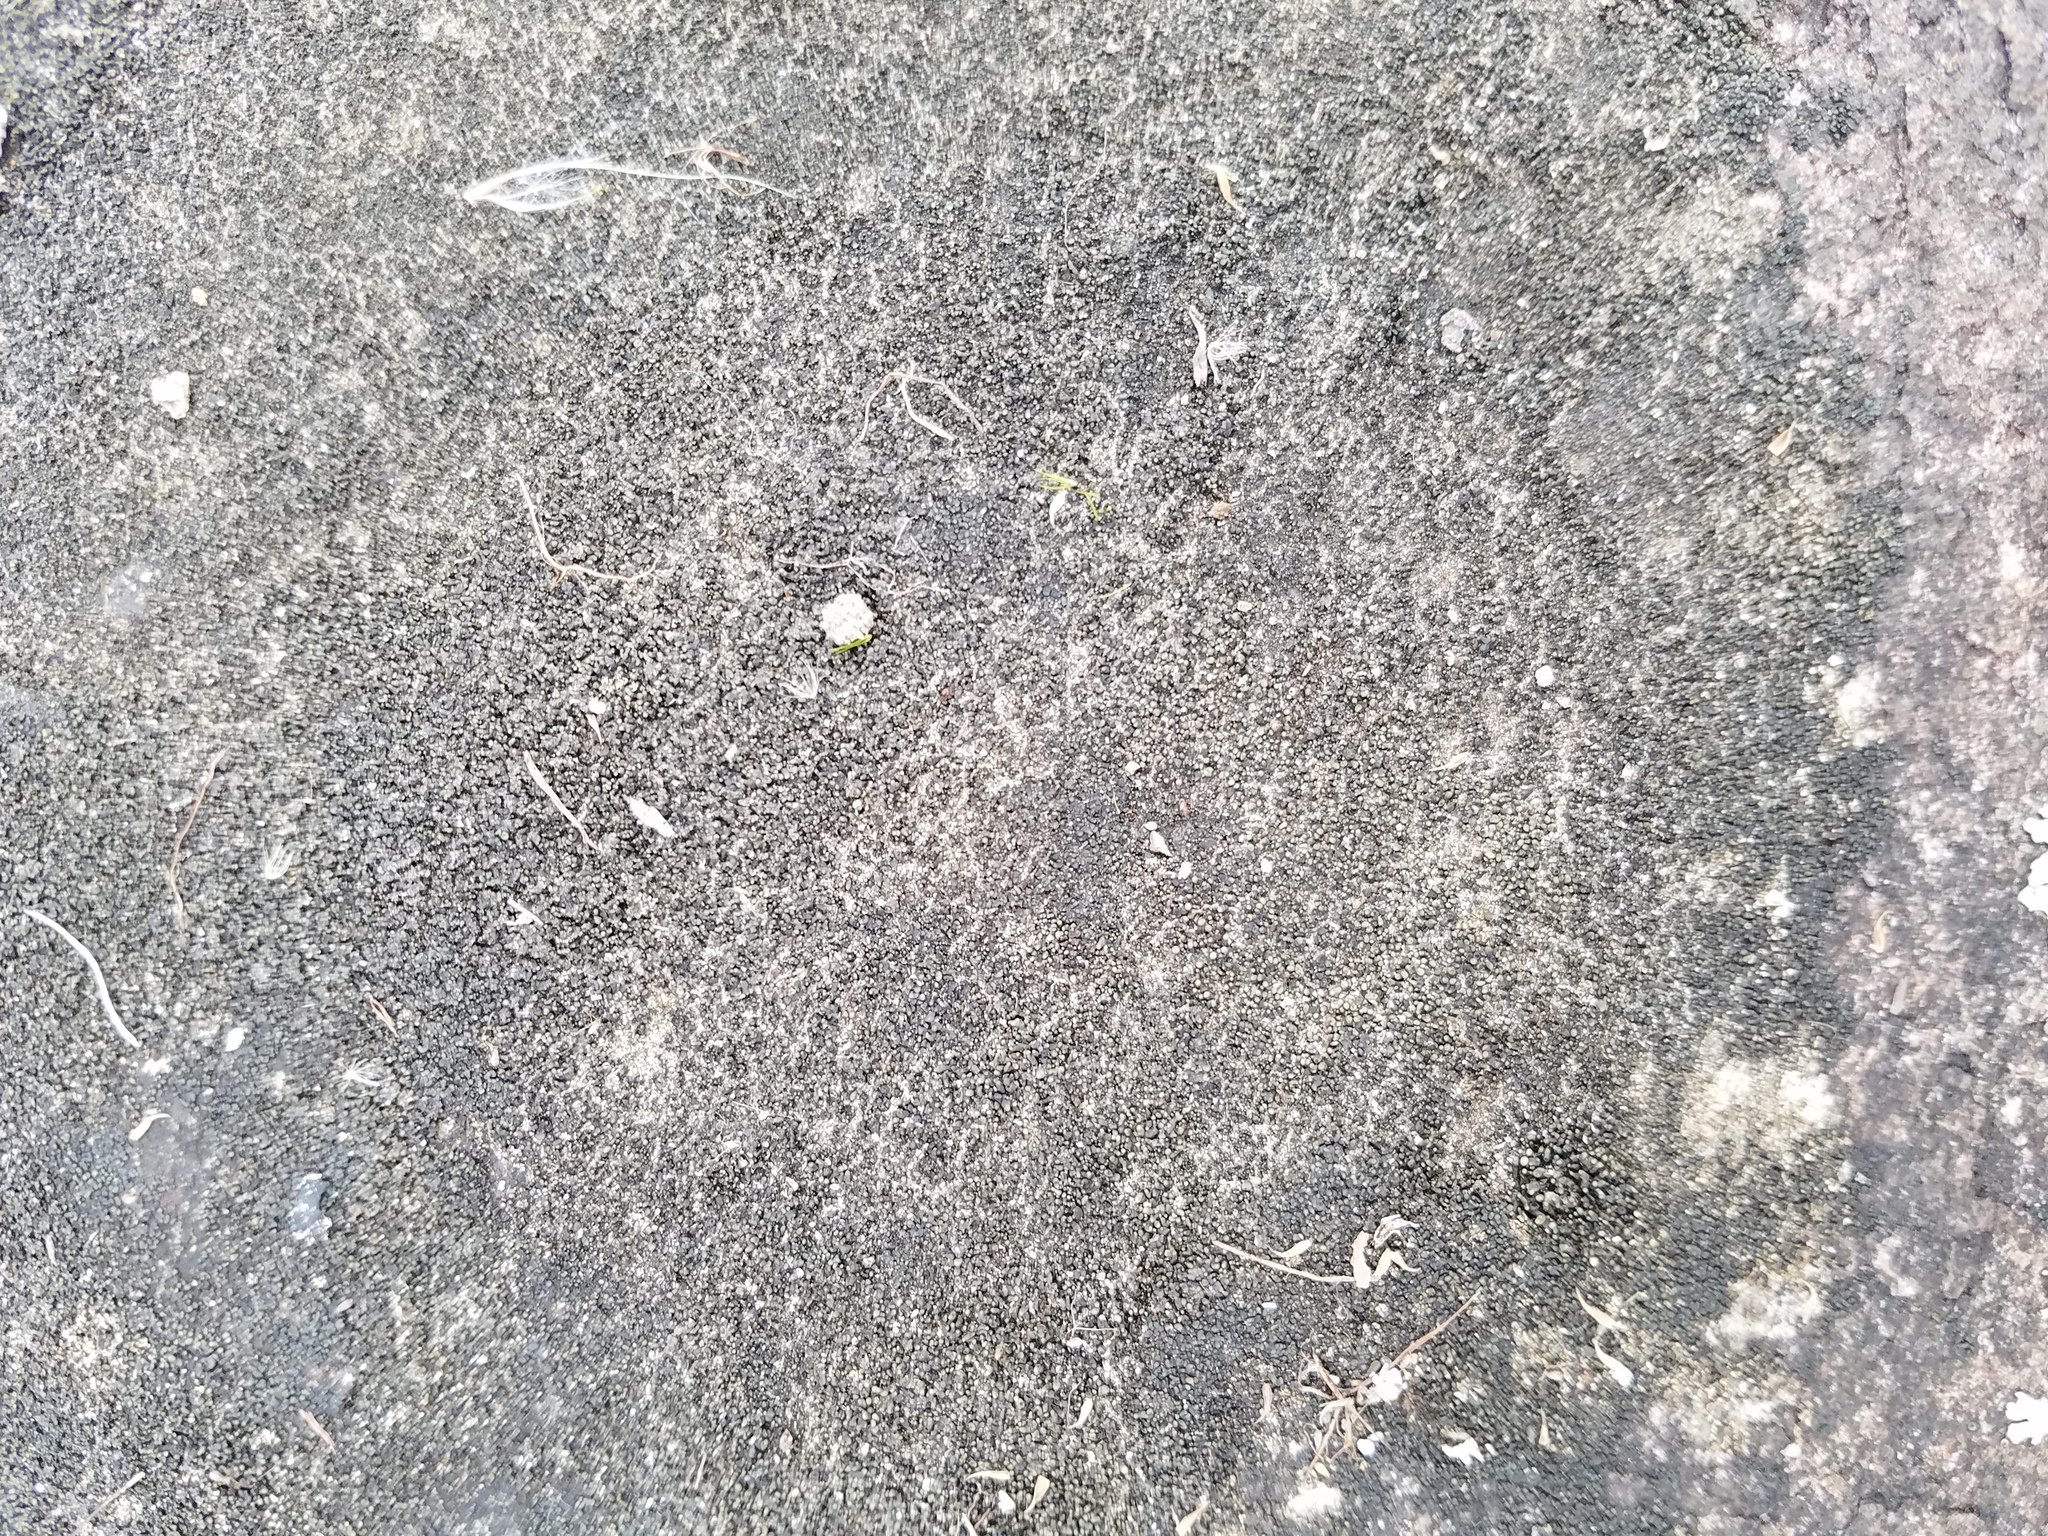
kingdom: Fungi
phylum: Ascomycota
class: Lichinomycetes
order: Lichinales
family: Peltulaceae
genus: Peltula
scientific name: Peltula cylindrica
